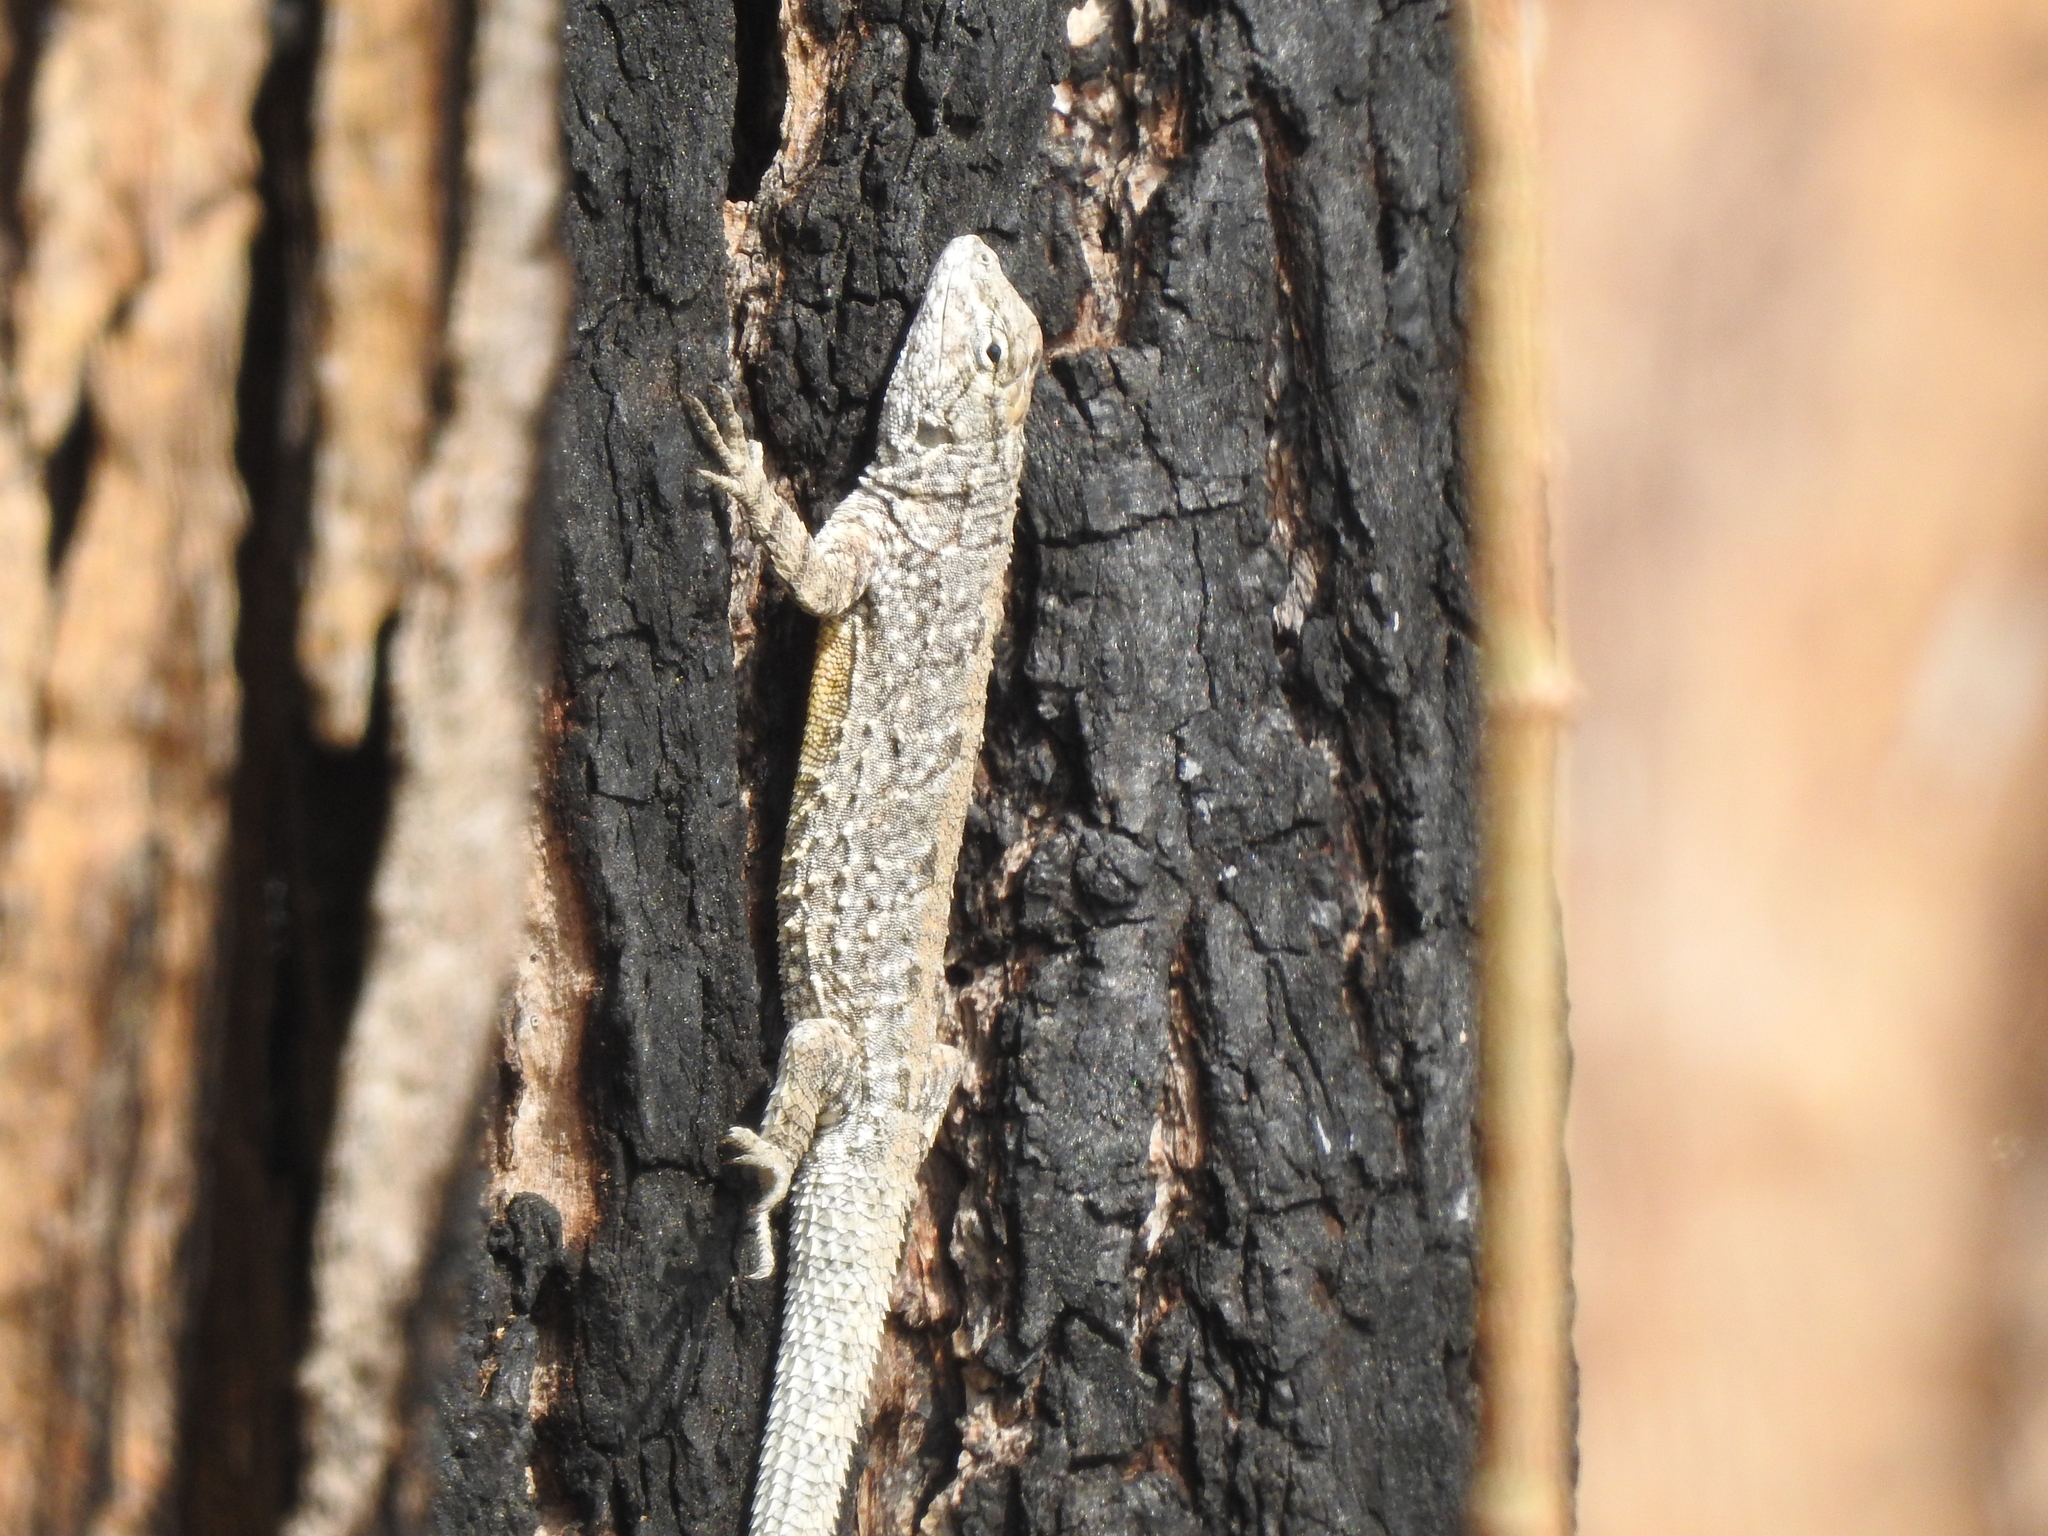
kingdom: Animalia
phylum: Chordata
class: Squamata
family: Phrynosomatidae
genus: Urosaurus
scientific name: Urosaurus bicarinatus
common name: Tropical tree lizard
